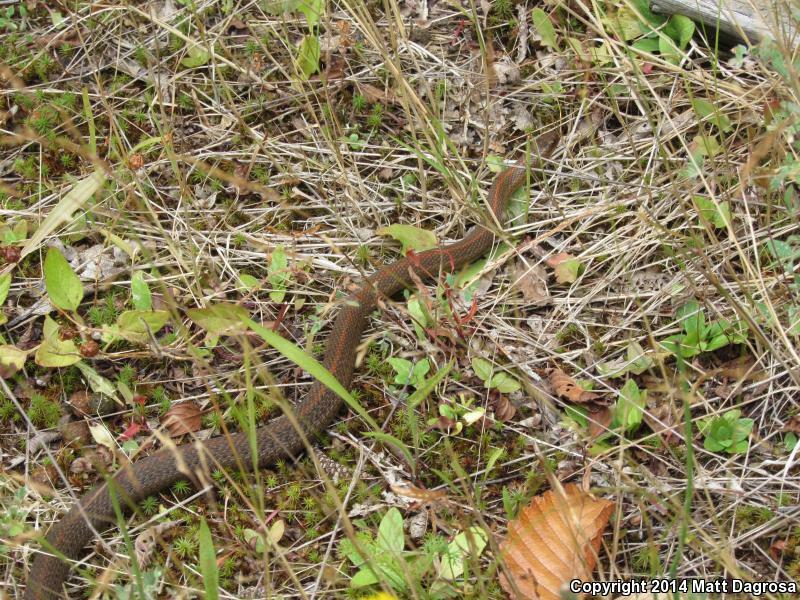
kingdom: Animalia
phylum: Chordata
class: Squamata
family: Colubridae
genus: Thamnophis
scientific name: Thamnophis ordinoides
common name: Northwestern garter snake
